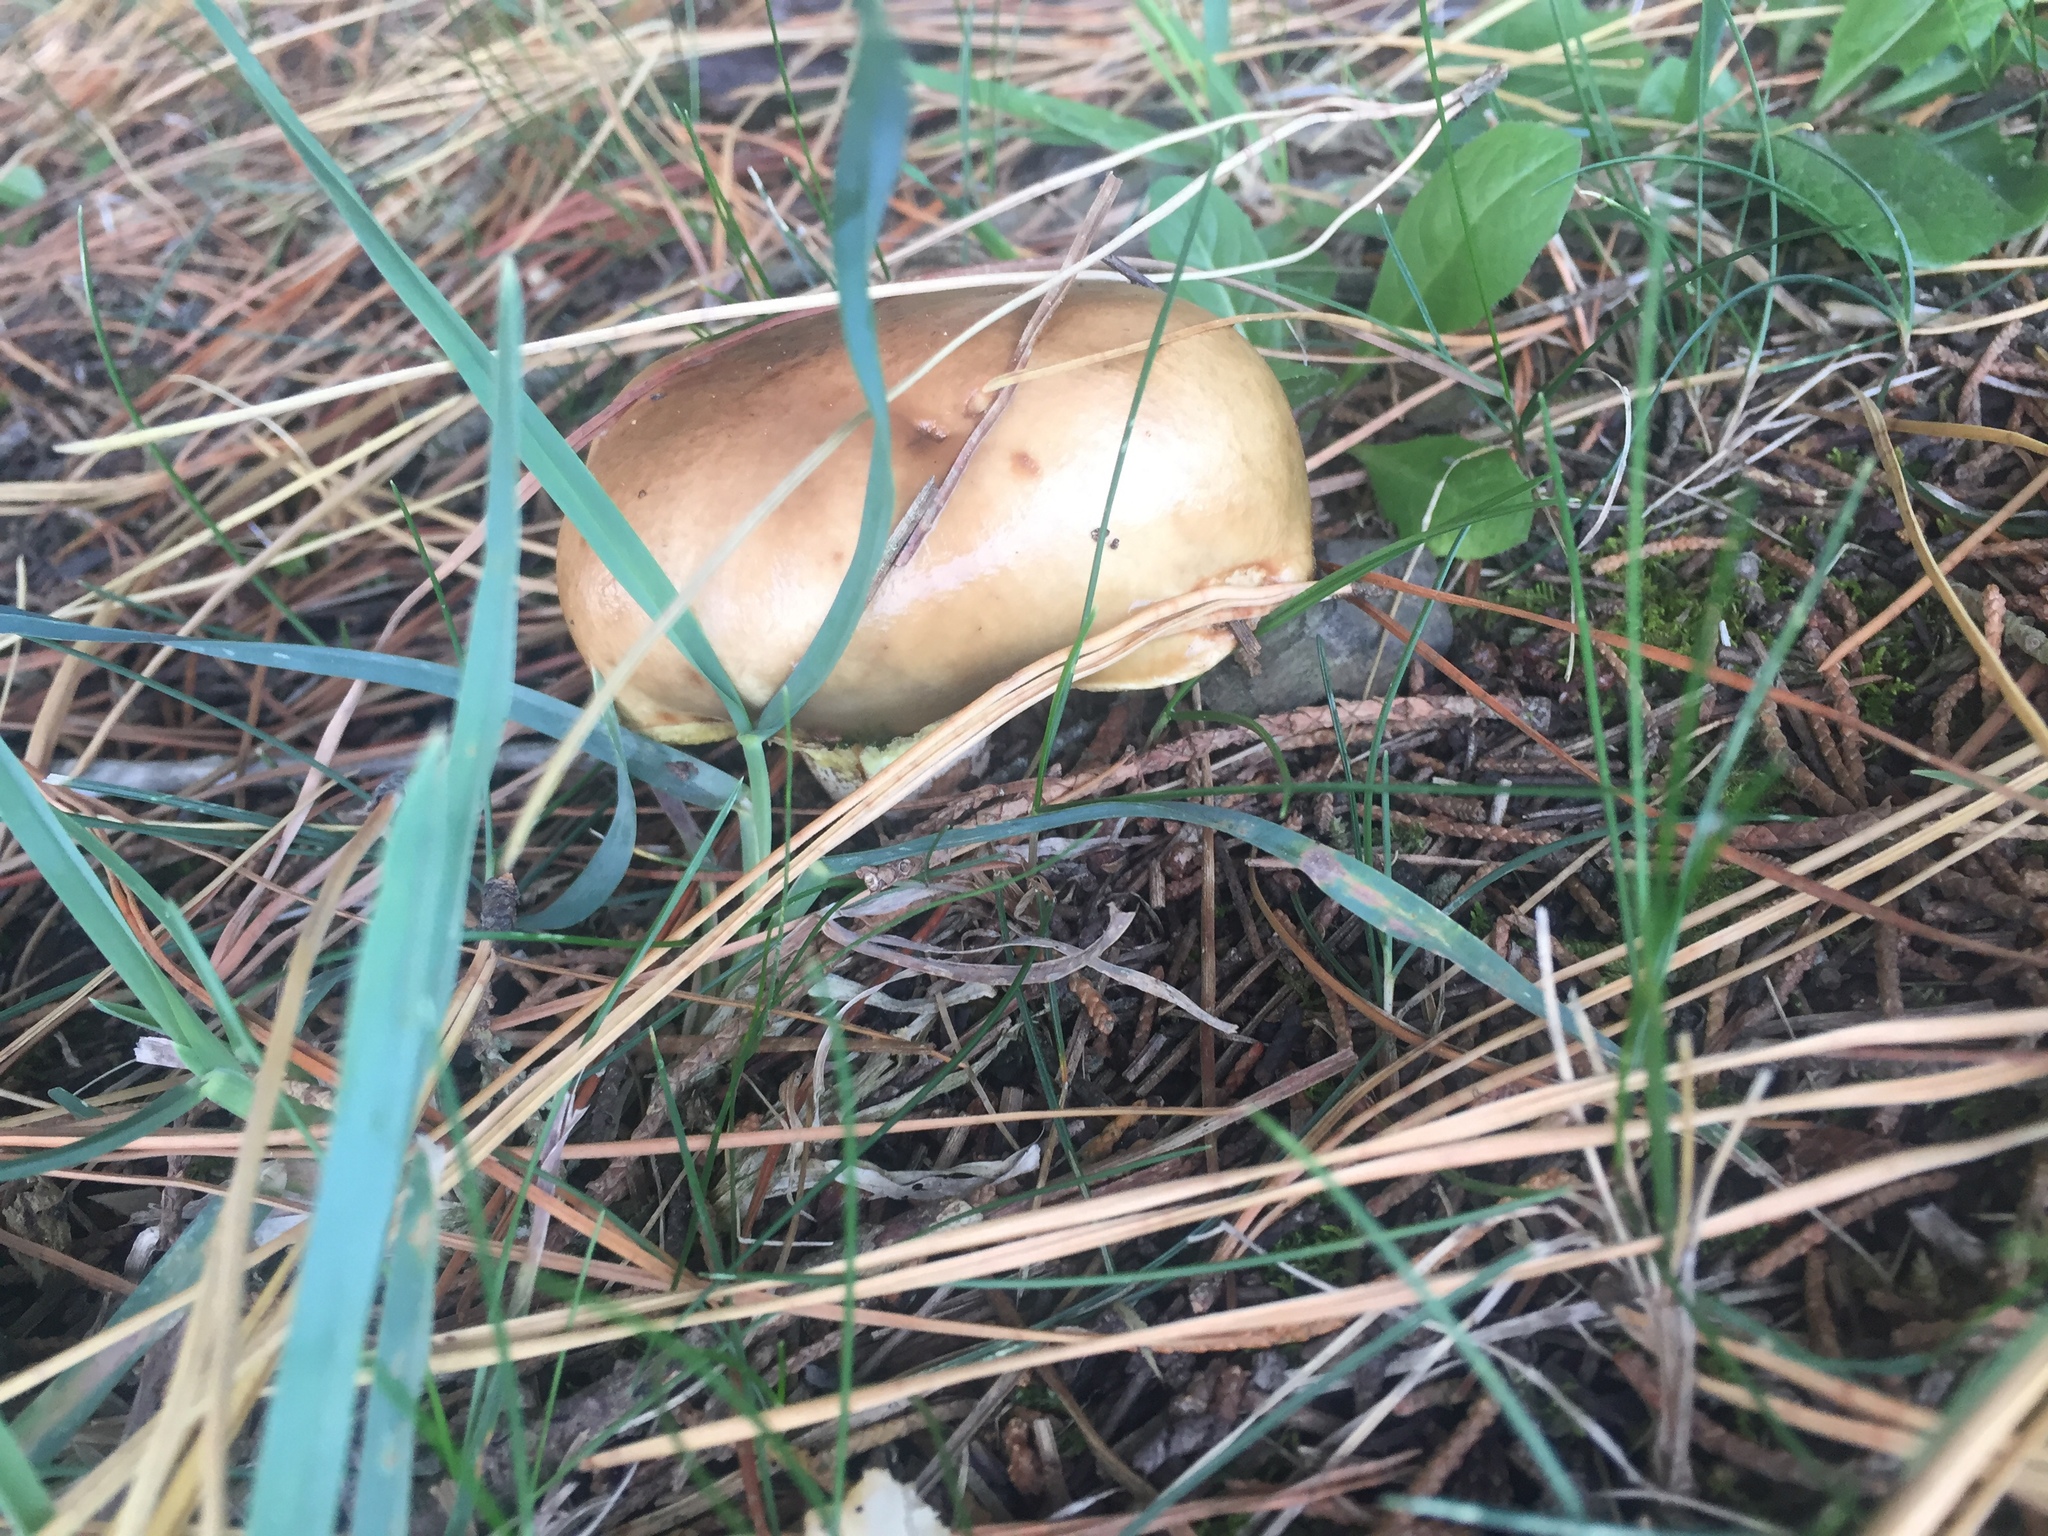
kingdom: Fungi
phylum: Basidiomycota
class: Agaricomycetes
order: Boletales
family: Suillaceae
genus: Suillus
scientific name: Suillus granulatus
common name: Weeping bolete
